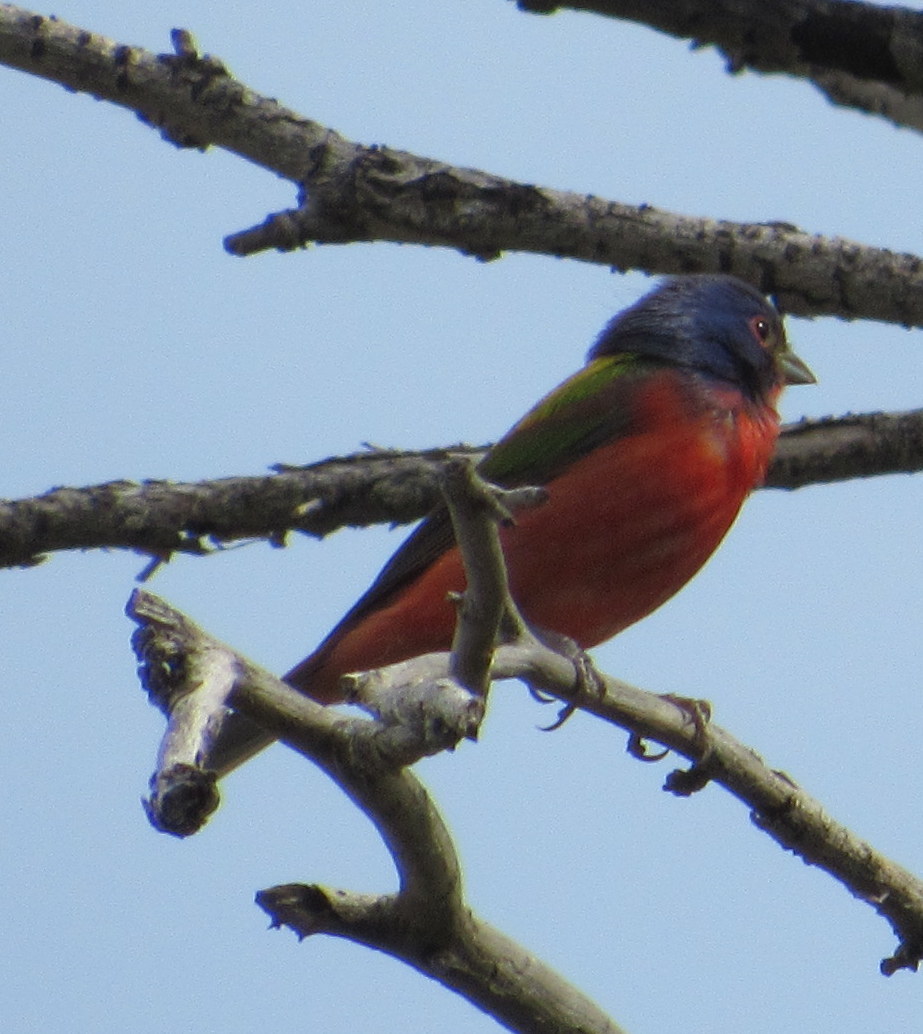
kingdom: Animalia
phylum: Chordata
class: Aves
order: Passeriformes
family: Cardinalidae
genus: Passerina
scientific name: Passerina ciris
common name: Painted bunting
